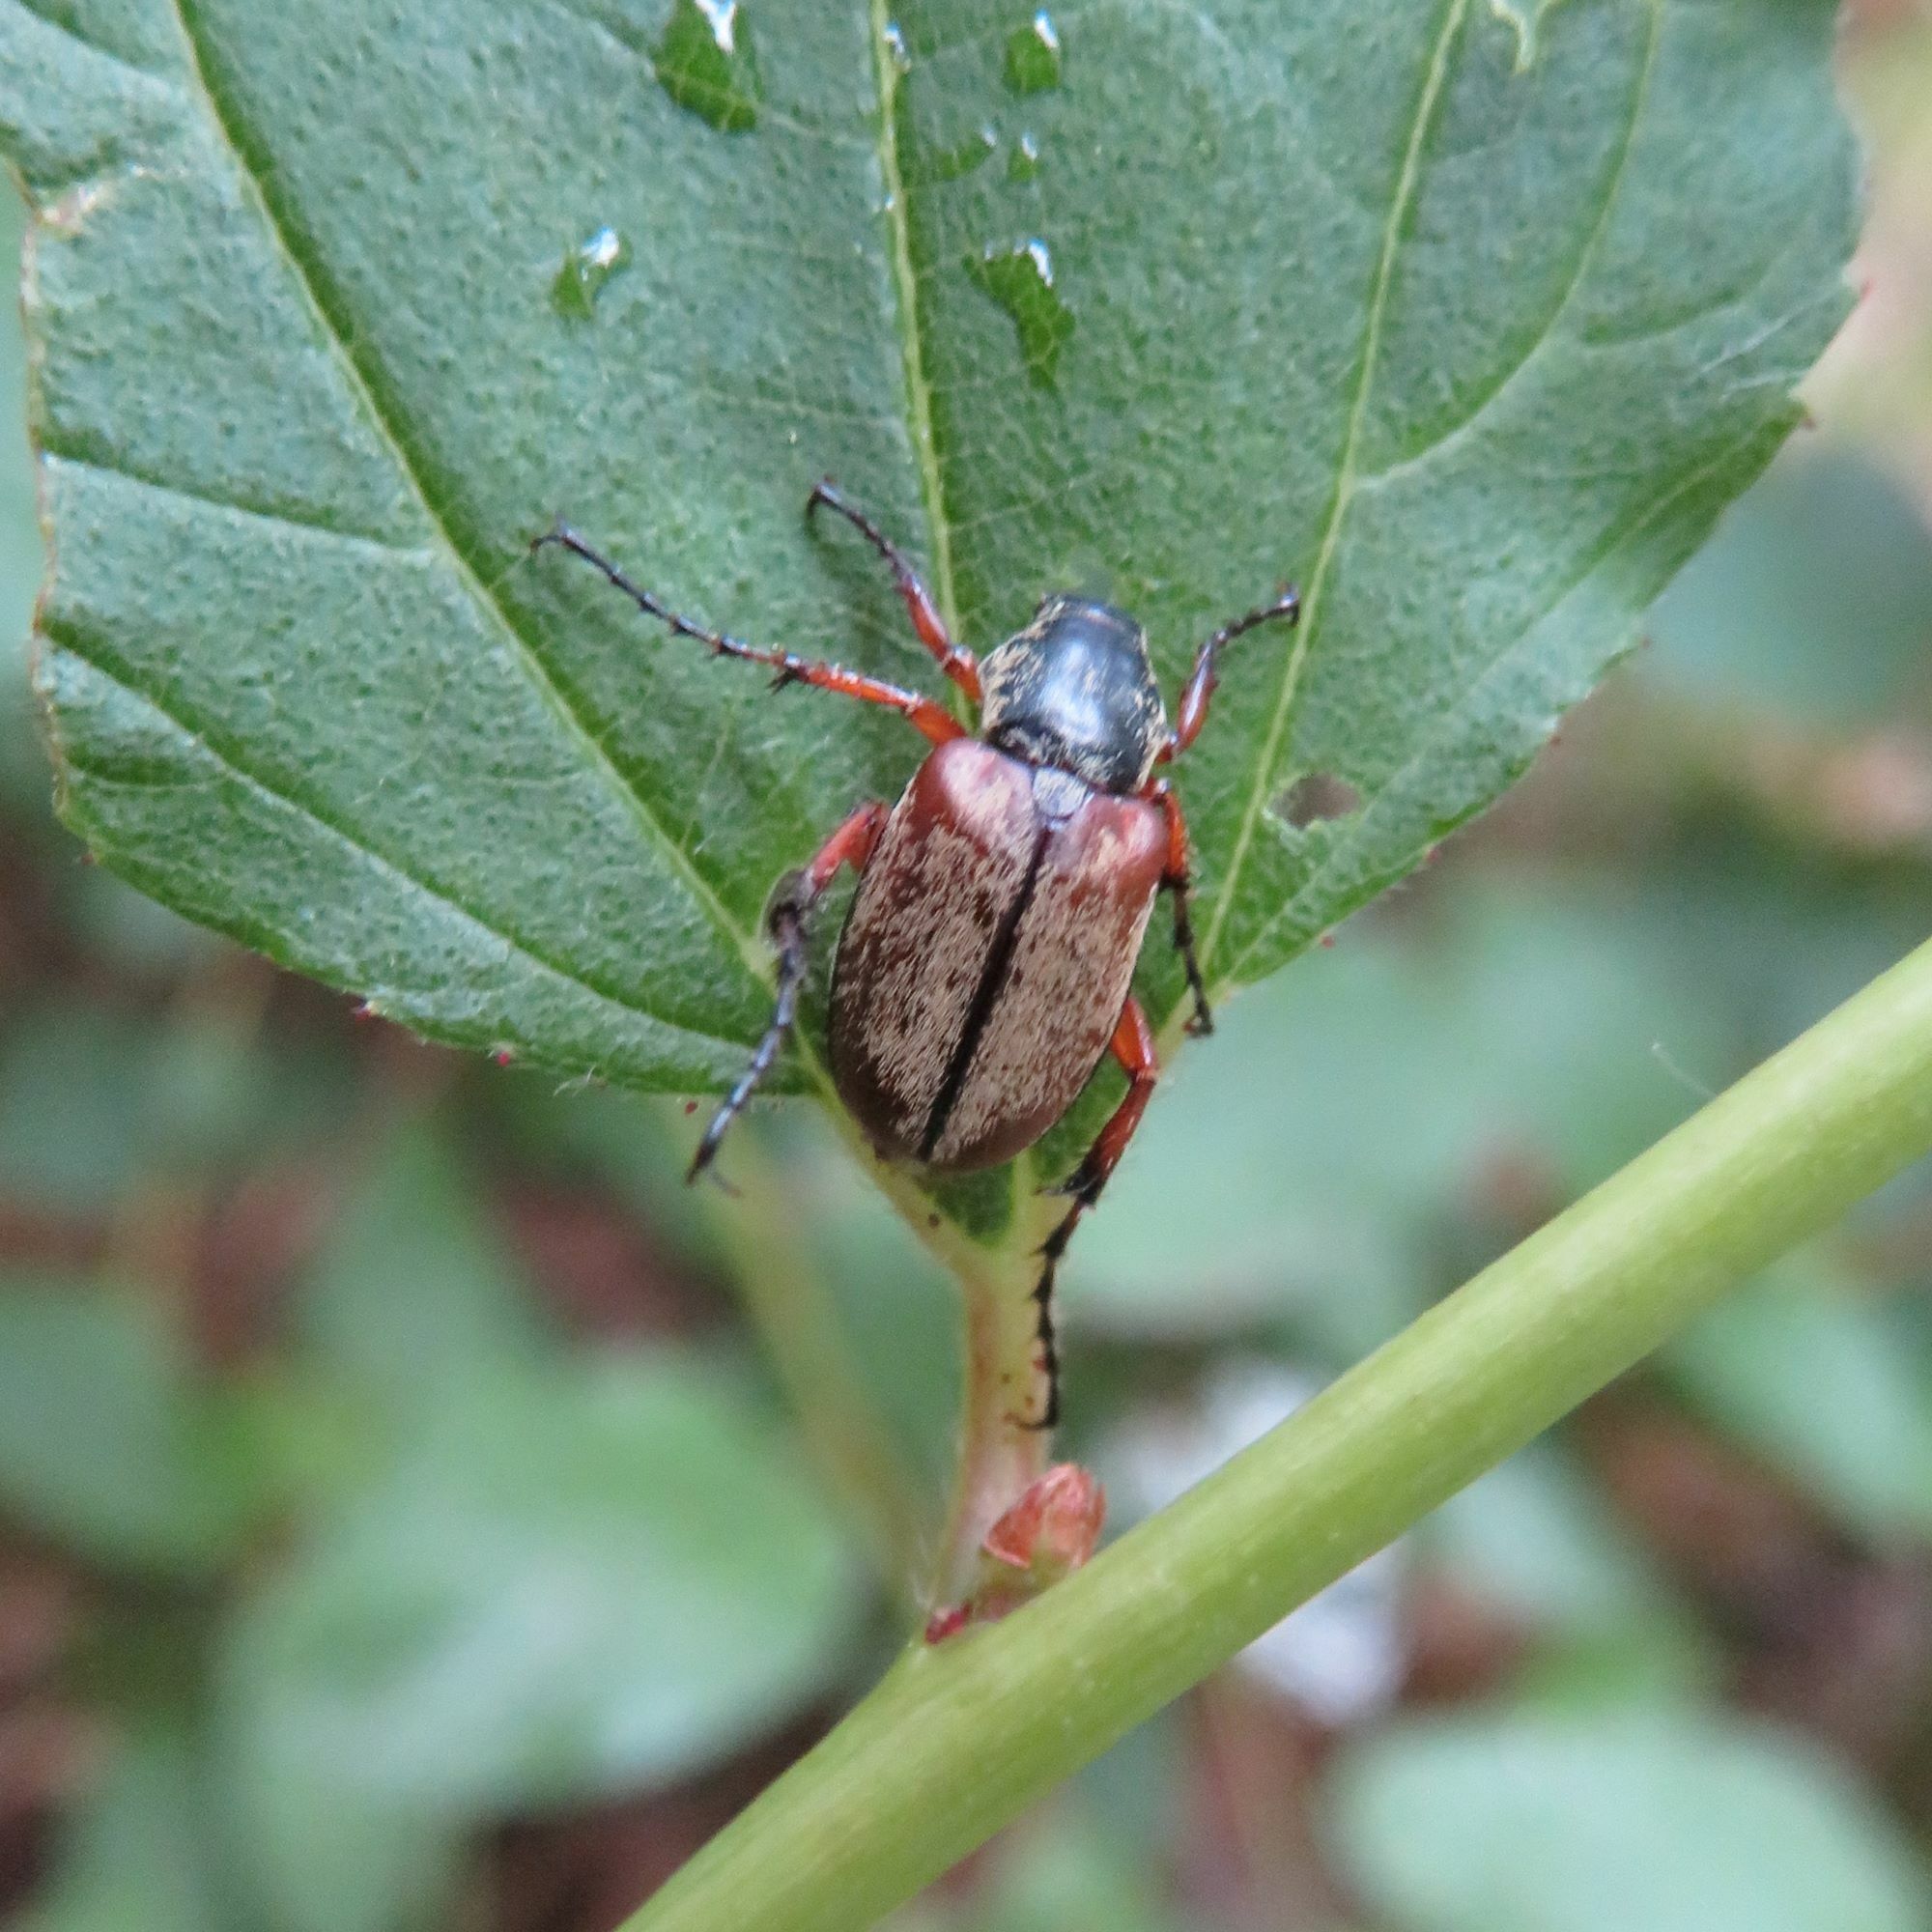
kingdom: Animalia
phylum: Arthropoda
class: Insecta
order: Coleoptera
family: Scarabaeidae
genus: Macrodactylus
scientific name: Macrodactylus subspinosus
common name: American rose chafer
